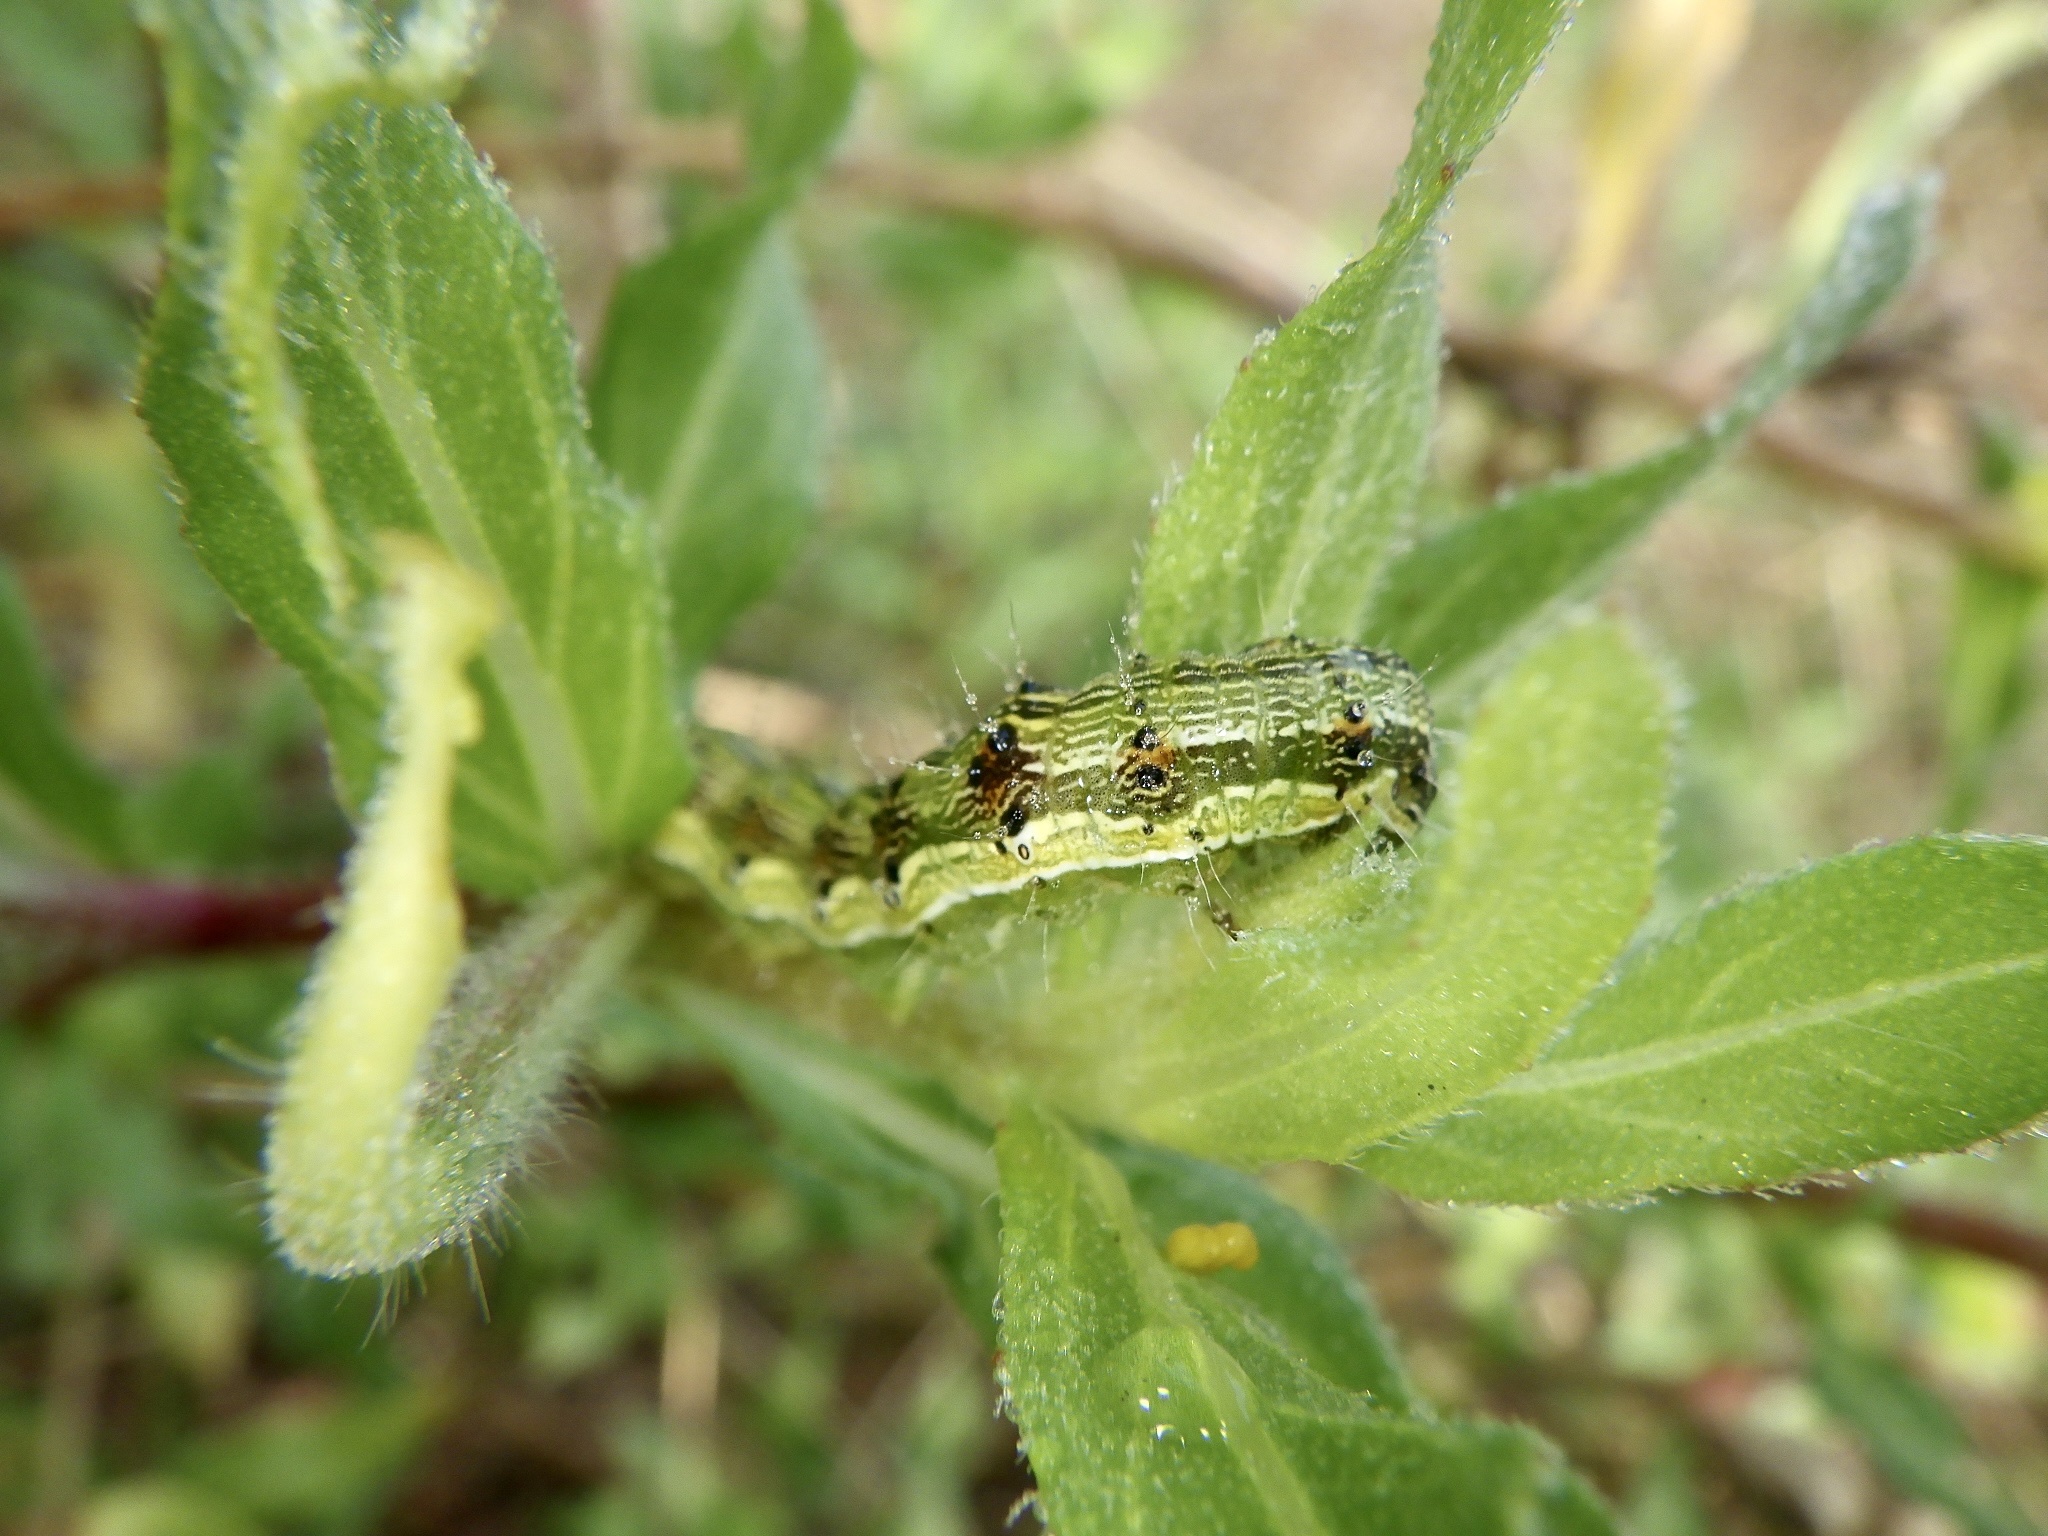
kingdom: Animalia
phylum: Arthropoda
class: Insecta
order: Lepidoptera
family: Noctuidae
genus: Helicoverpa
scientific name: Helicoverpa armigera
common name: Cotton bollworm
